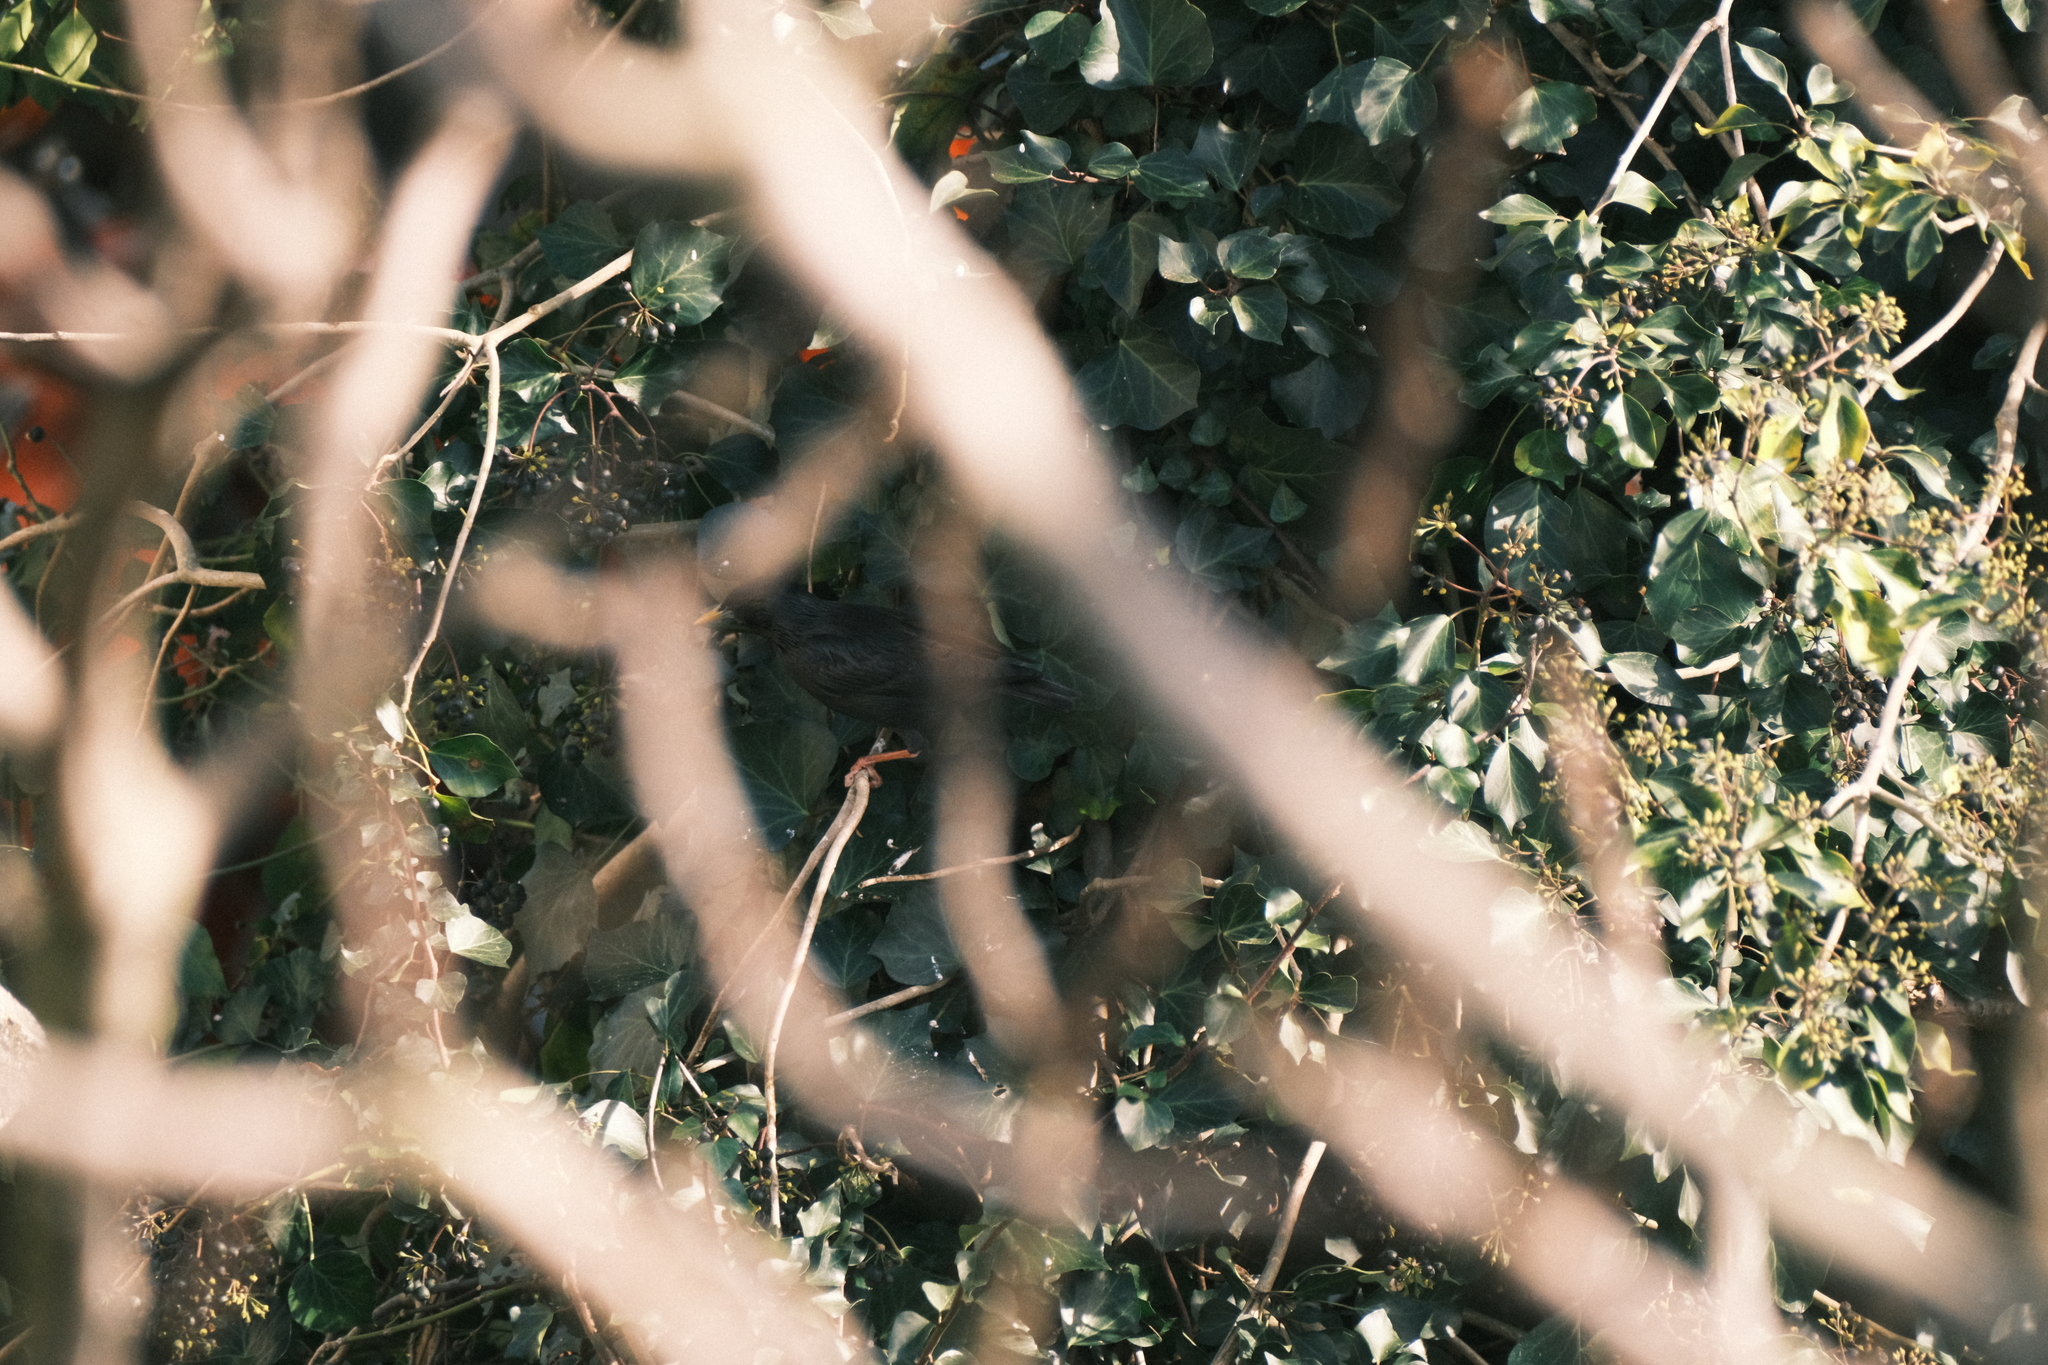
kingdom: Animalia
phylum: Chordata
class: Aves
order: Passeriformes
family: Sturnidae
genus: Sturnus
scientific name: Sturnus unicolor
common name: Spotless starling
